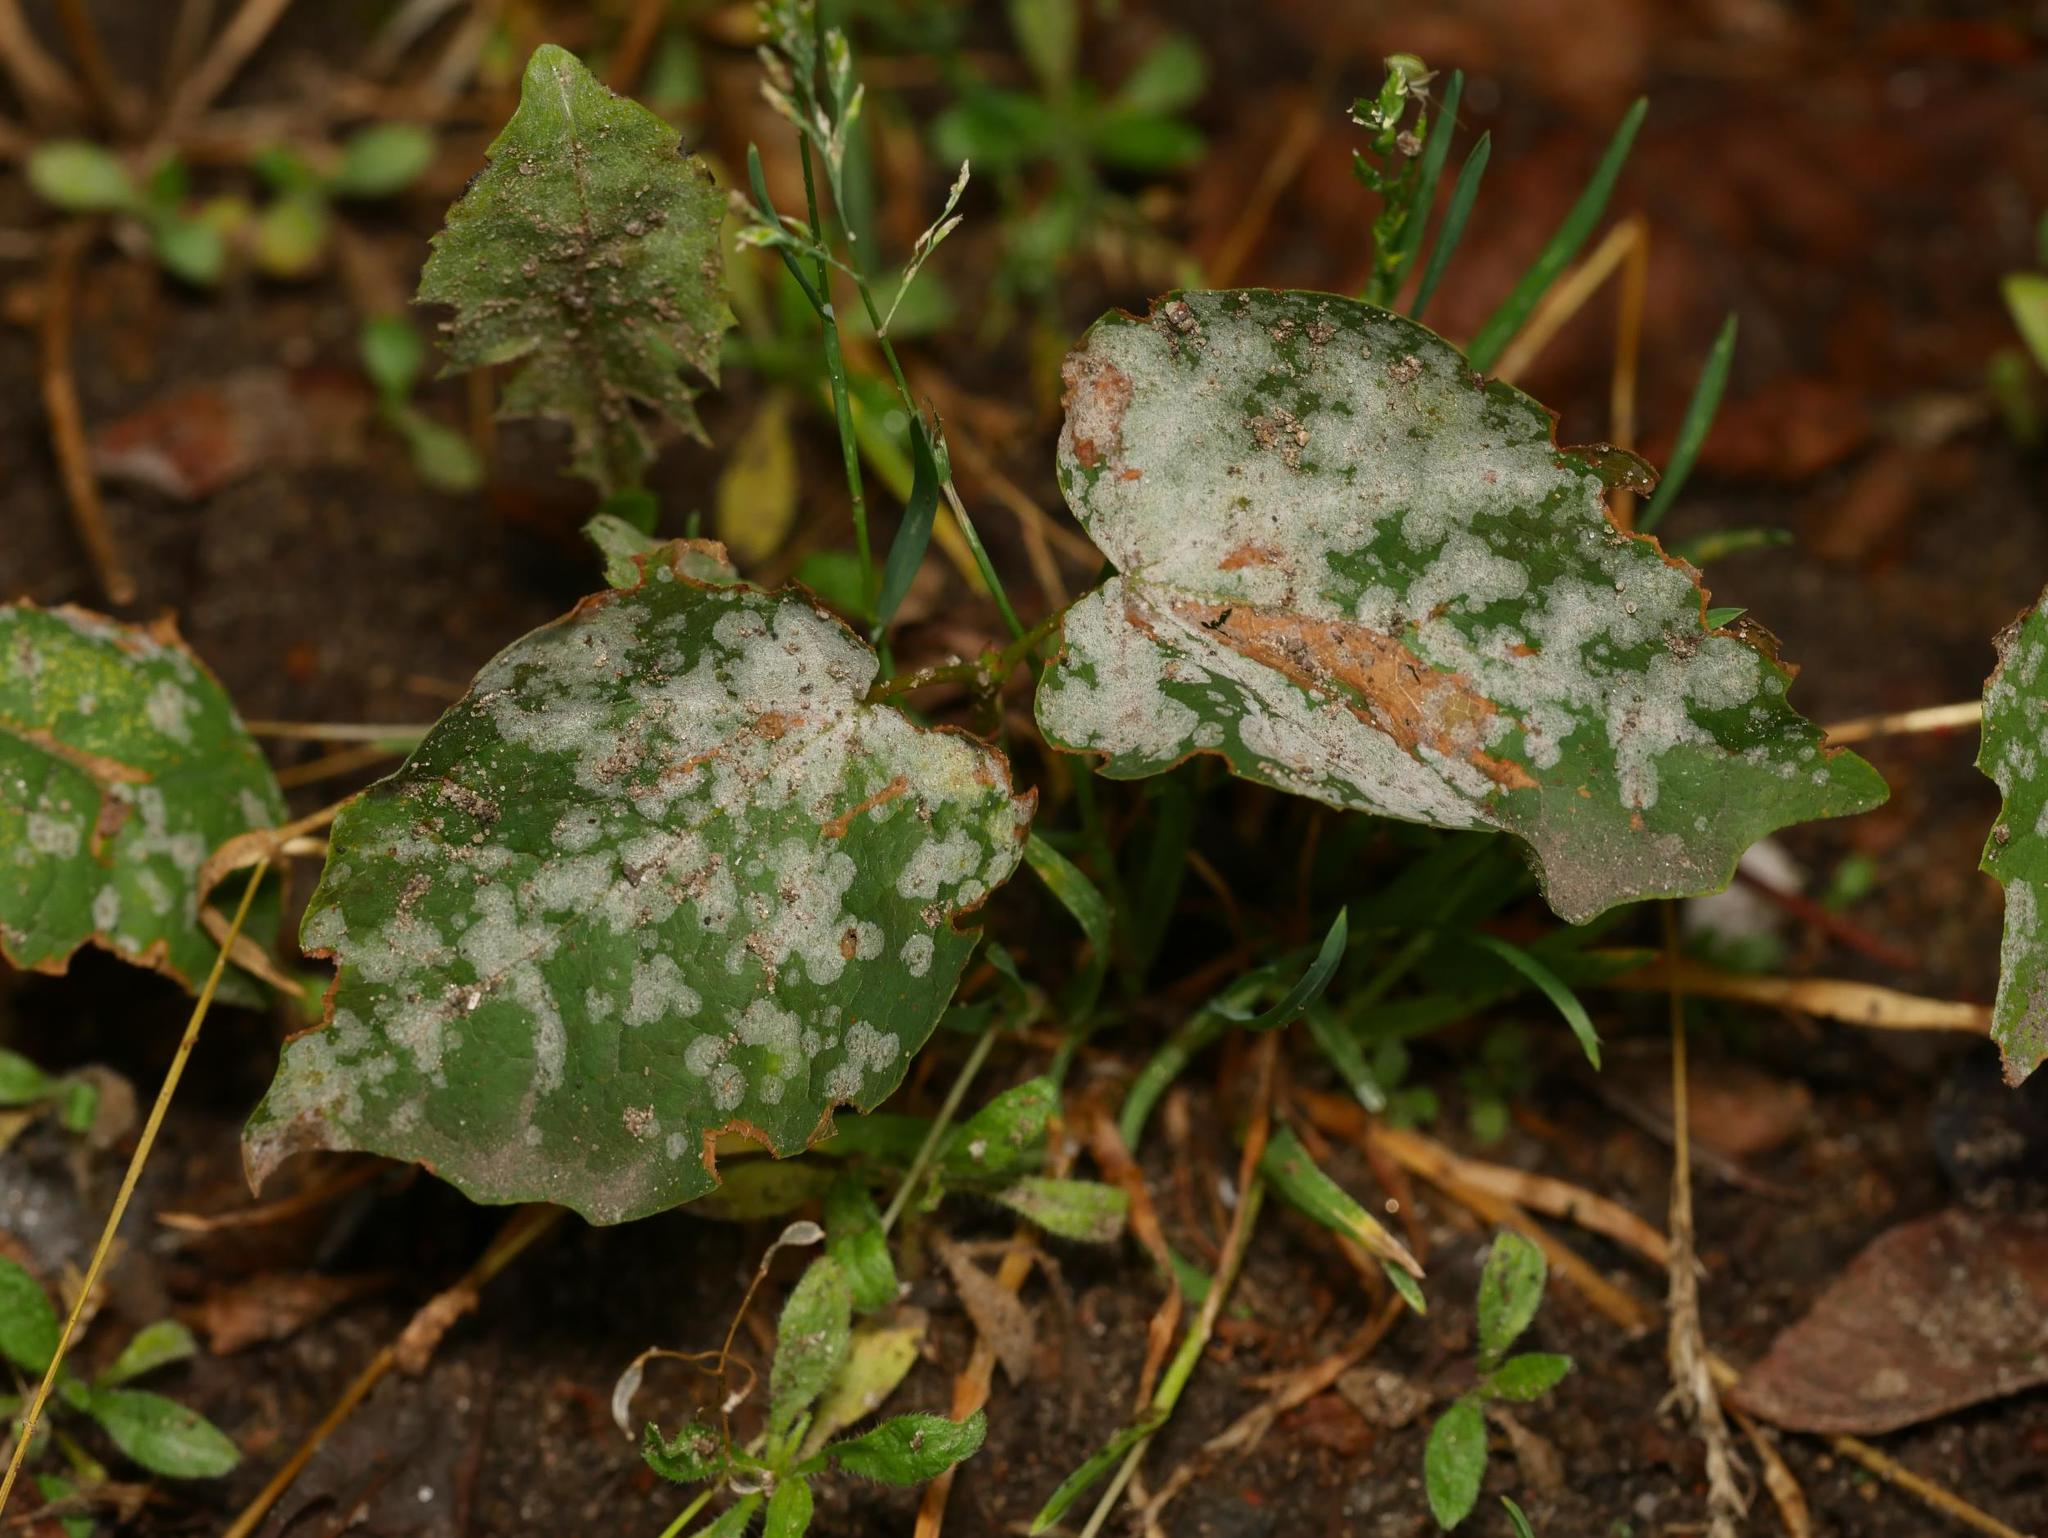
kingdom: Plantae
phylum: Tracheophyta
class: Magnoliopsida
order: Sapindales
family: Sapindaceae
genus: Acer
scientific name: Acer platanoides
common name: Norway maple
